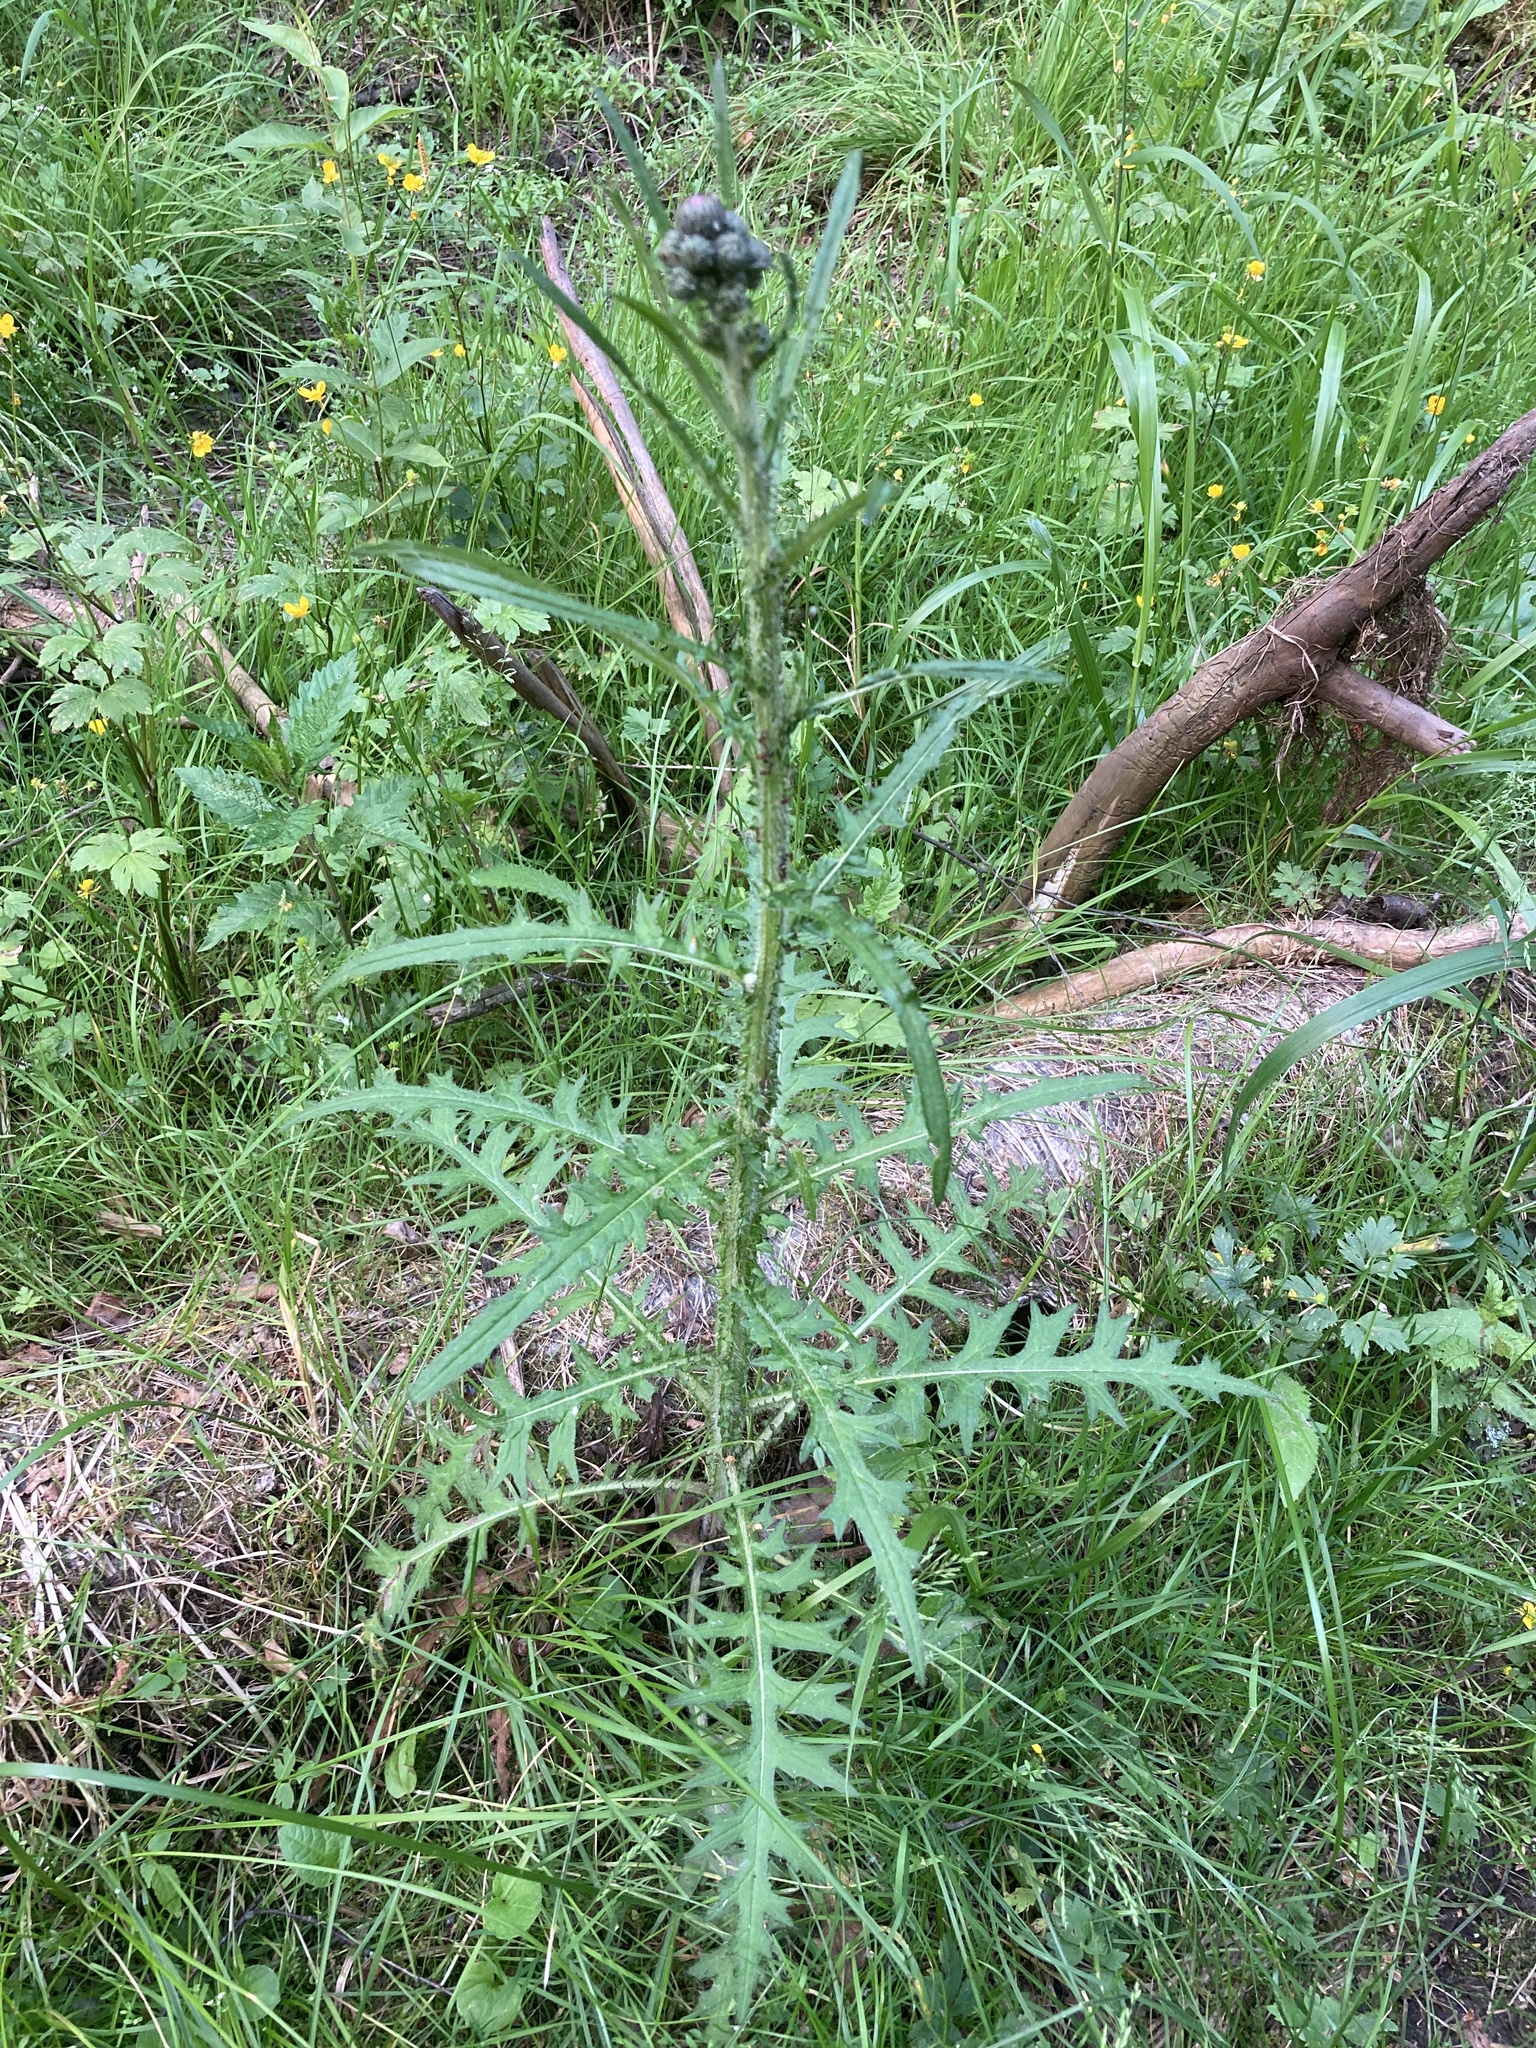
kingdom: Plantae
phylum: Tracheophyta
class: Magnoliopsida
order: Asterales
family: Asteraceae
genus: Cirsium
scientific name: Cirsium palustre
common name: Marsh thistle
